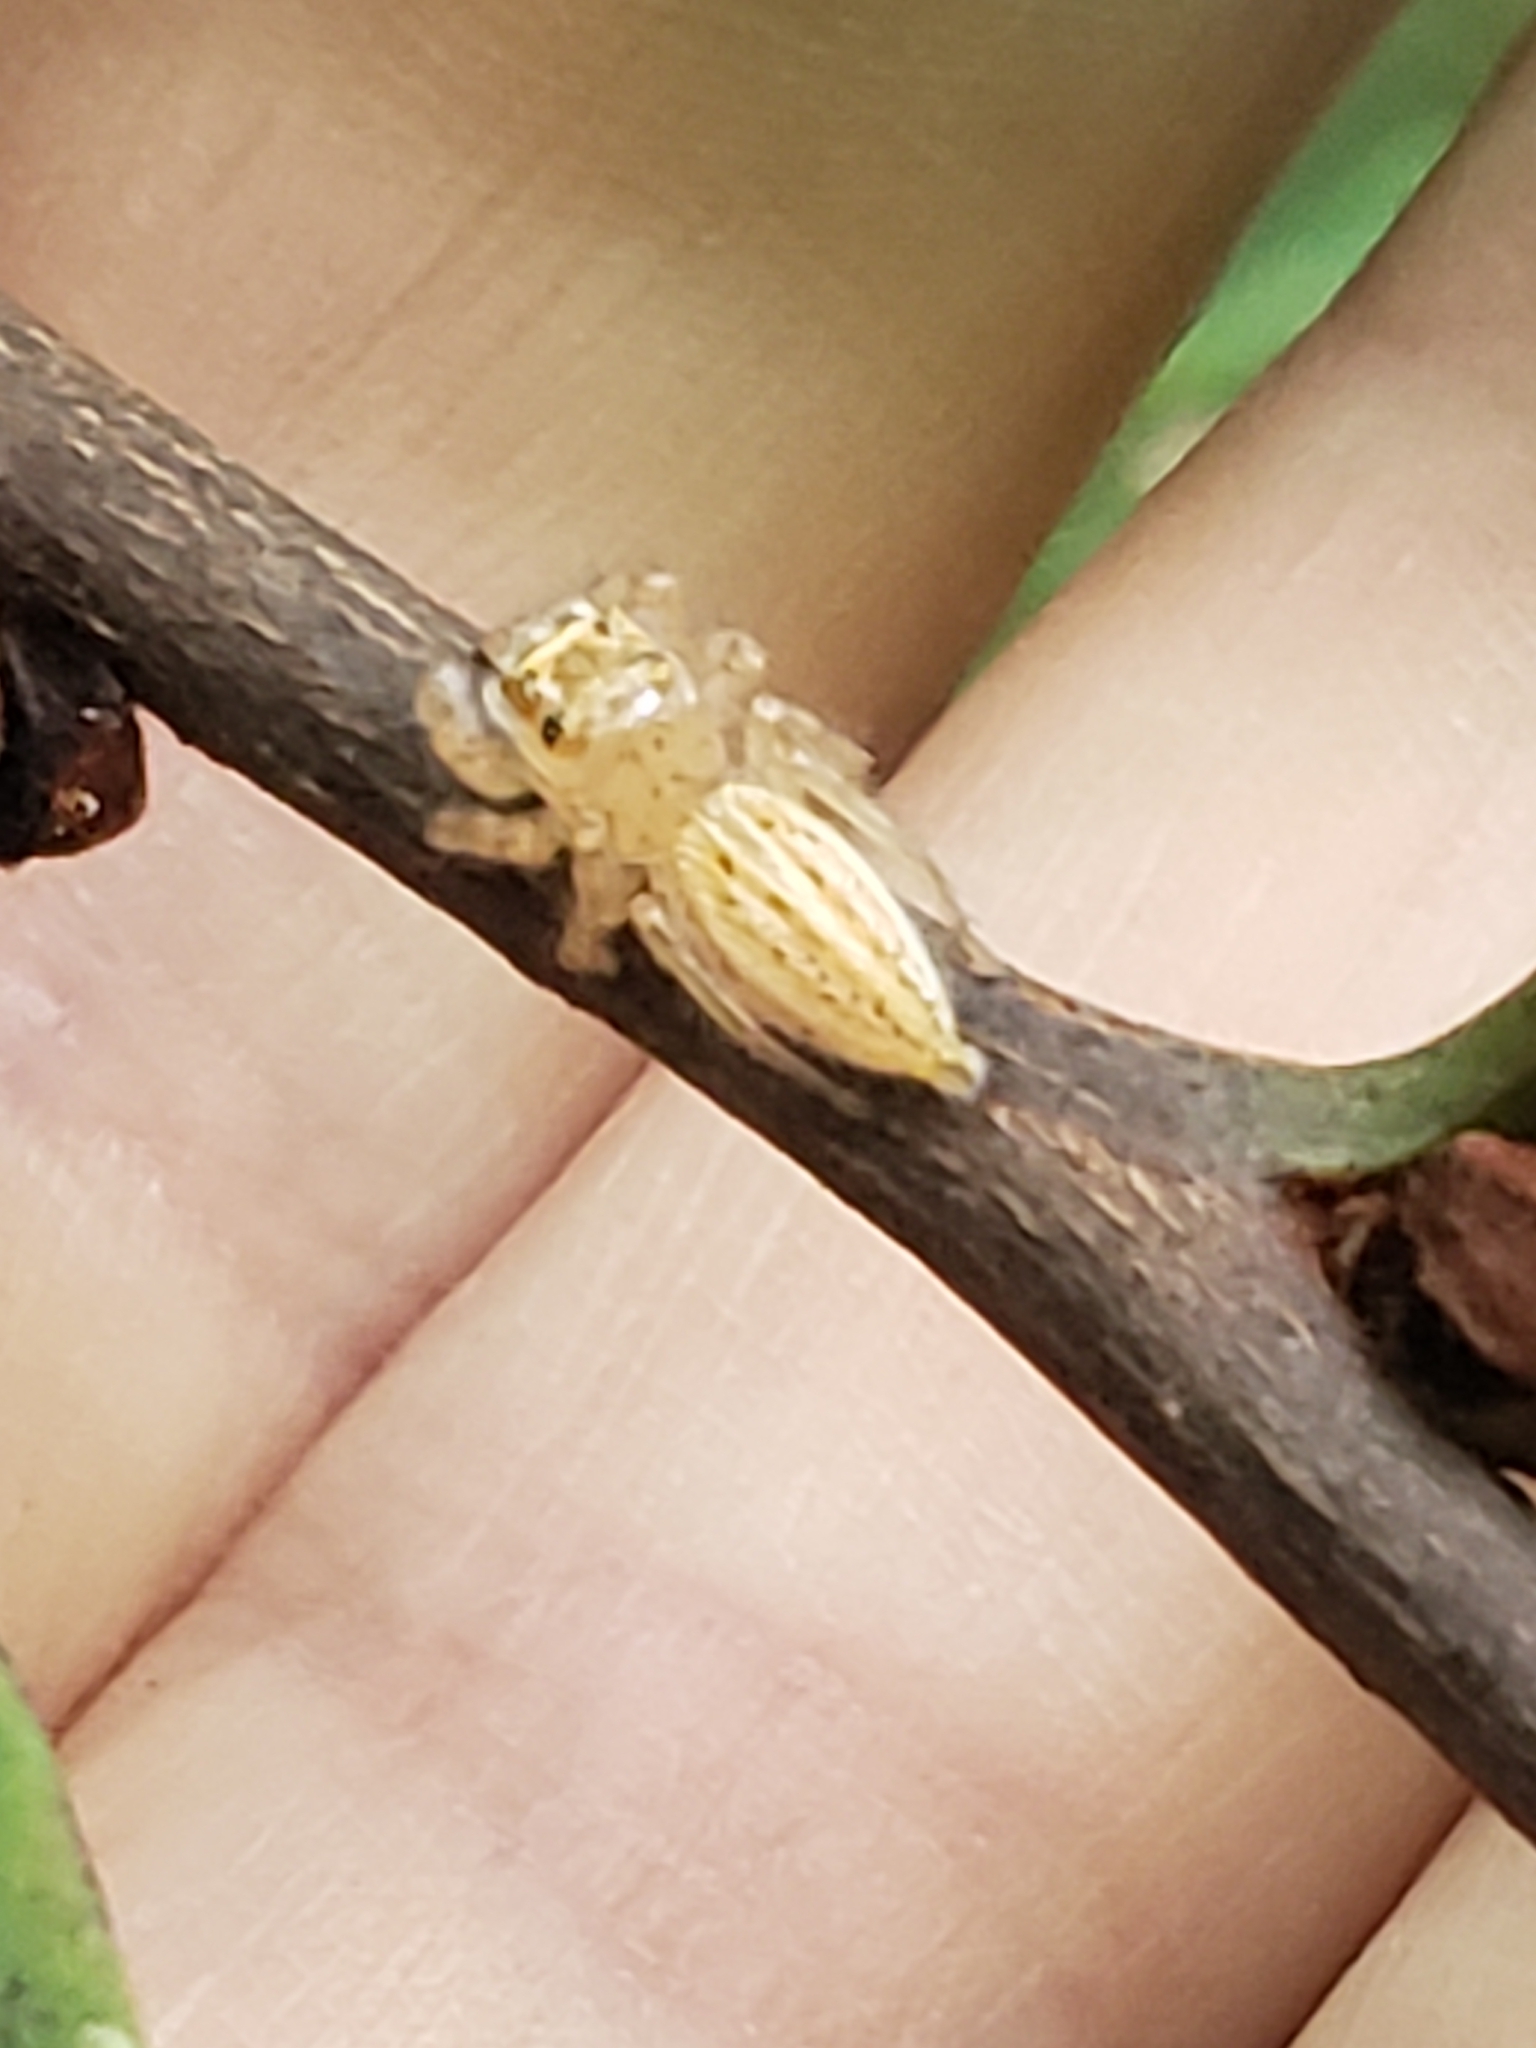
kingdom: Animalia
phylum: Arthropoda
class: Arachnida
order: Araneae
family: Salticidae
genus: Colonus
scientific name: Colonus sylvanus
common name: Jumping spiders
